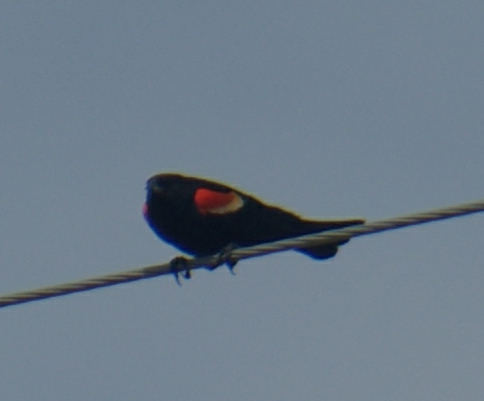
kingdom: Animalia
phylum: Chordata
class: Aves
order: Passeriformes
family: Icteridae
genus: Agelaius
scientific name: Agelaius phoeniceus
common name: Red-winged blackbird
